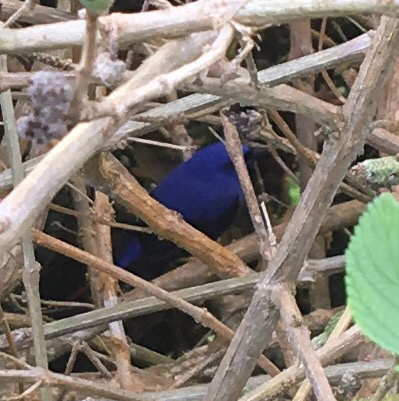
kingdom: Animalia
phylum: Chordata
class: Aves
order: Passeriformes
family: Thraupidae
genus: Cyanerpes
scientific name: Cyanerpes caeruleus
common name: Purple honeycreeper
